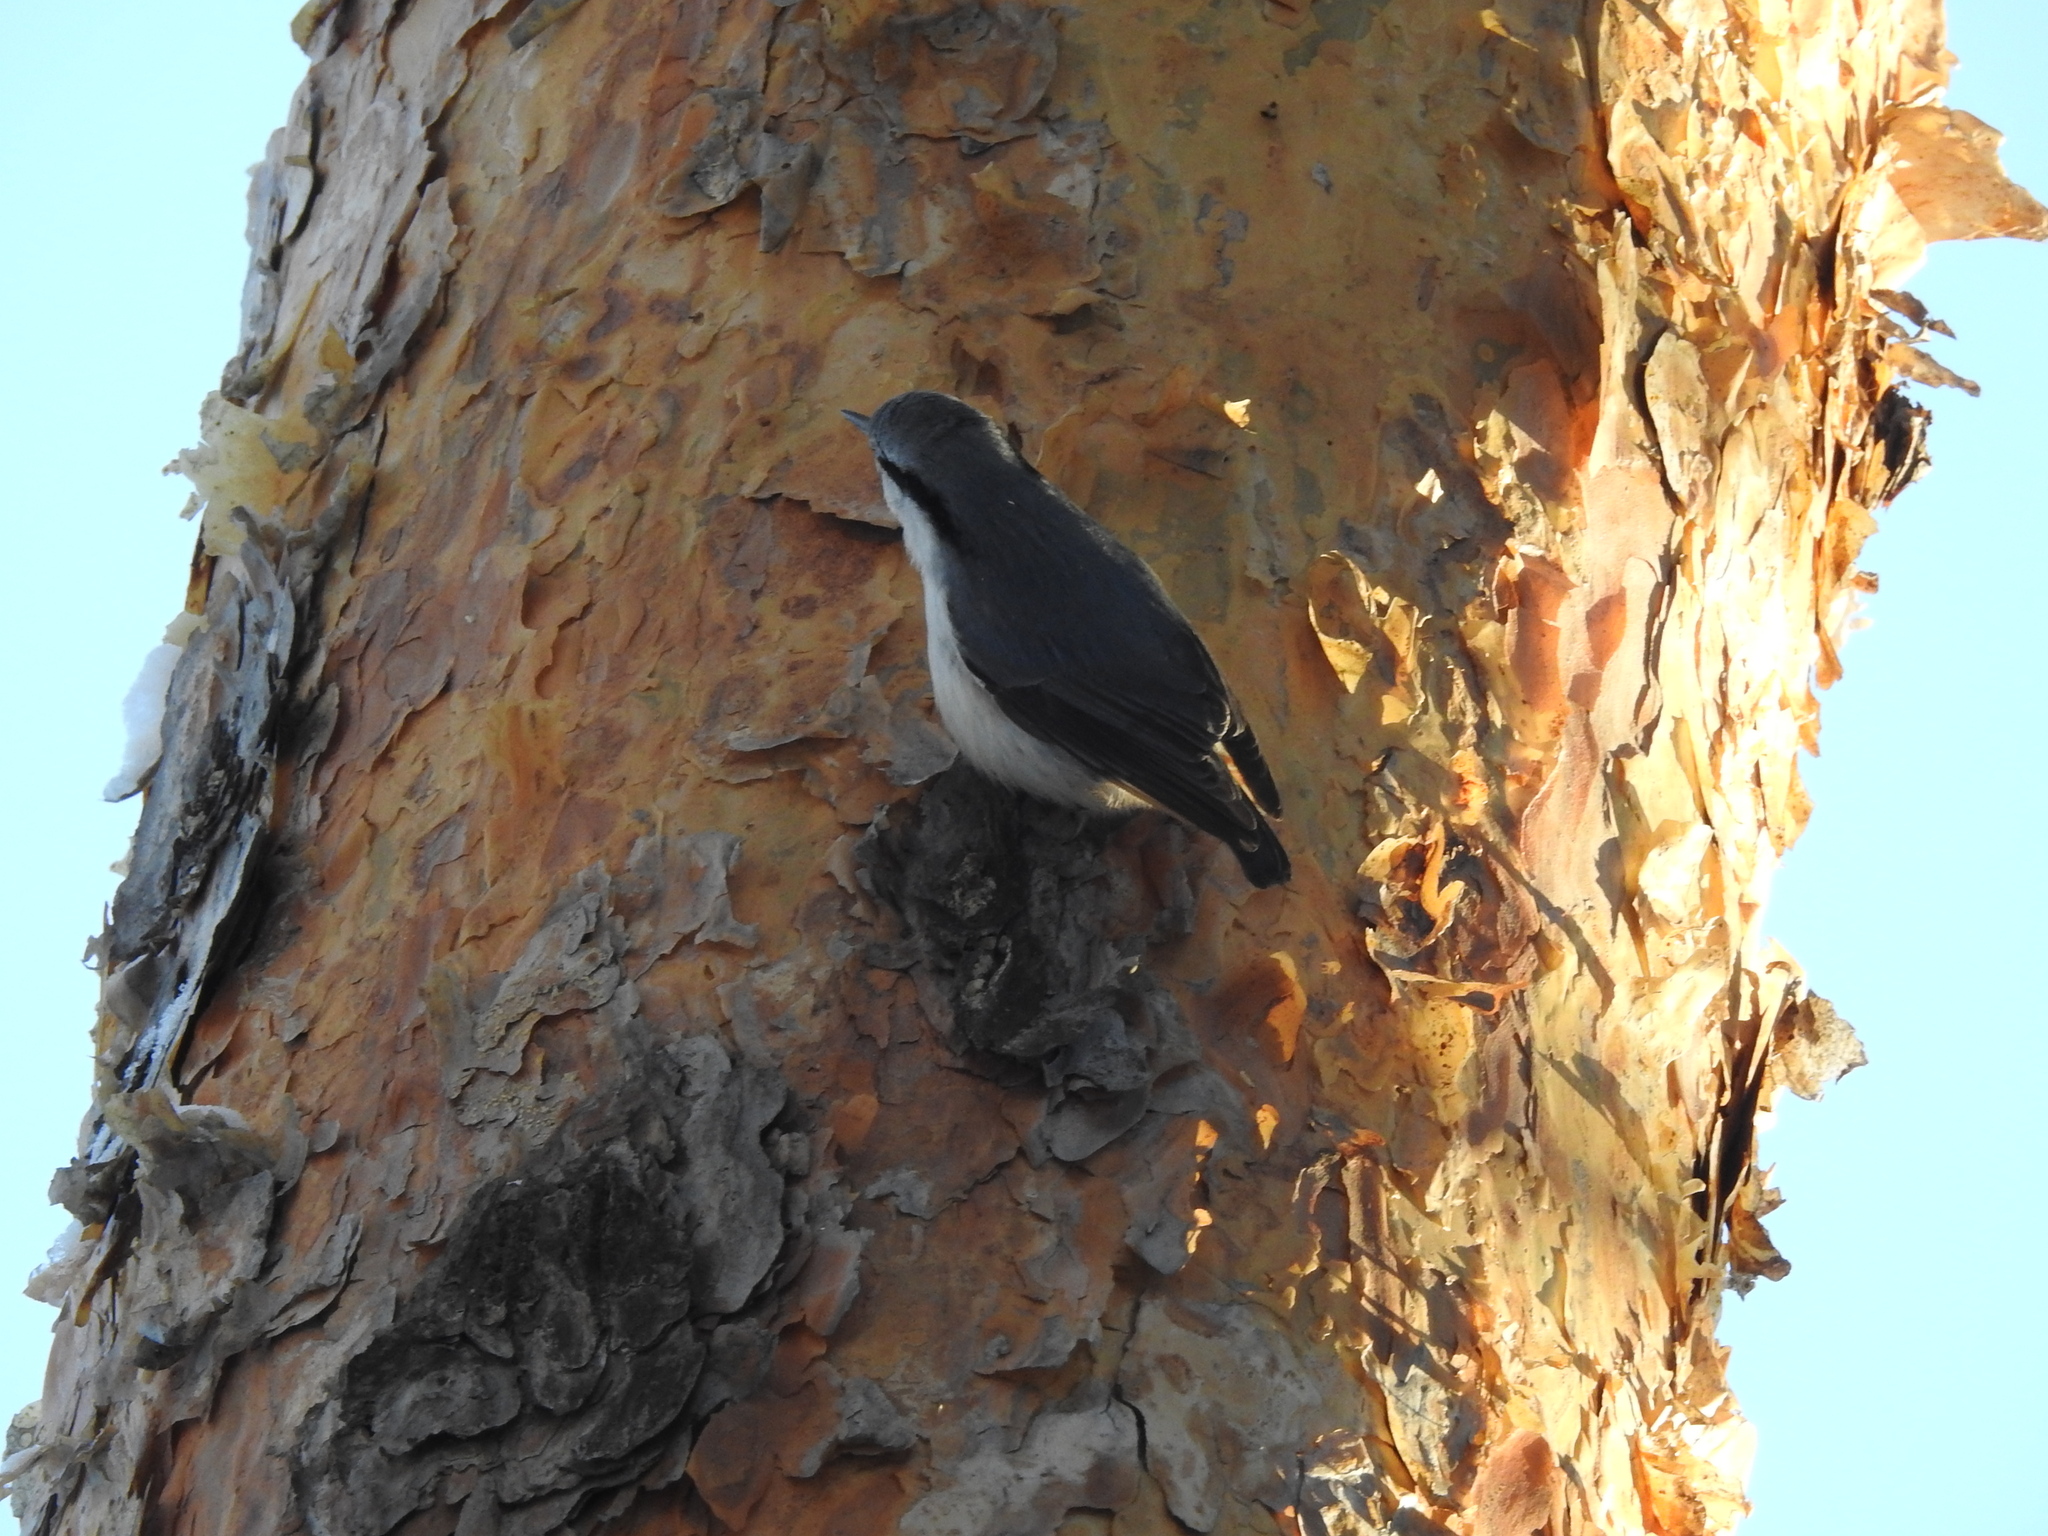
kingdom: Animalia
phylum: Chordata
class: Aves
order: Passeriformes
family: Sittidae
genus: Sitta
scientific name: Sitta europaea
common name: Eurasian nuthatch
